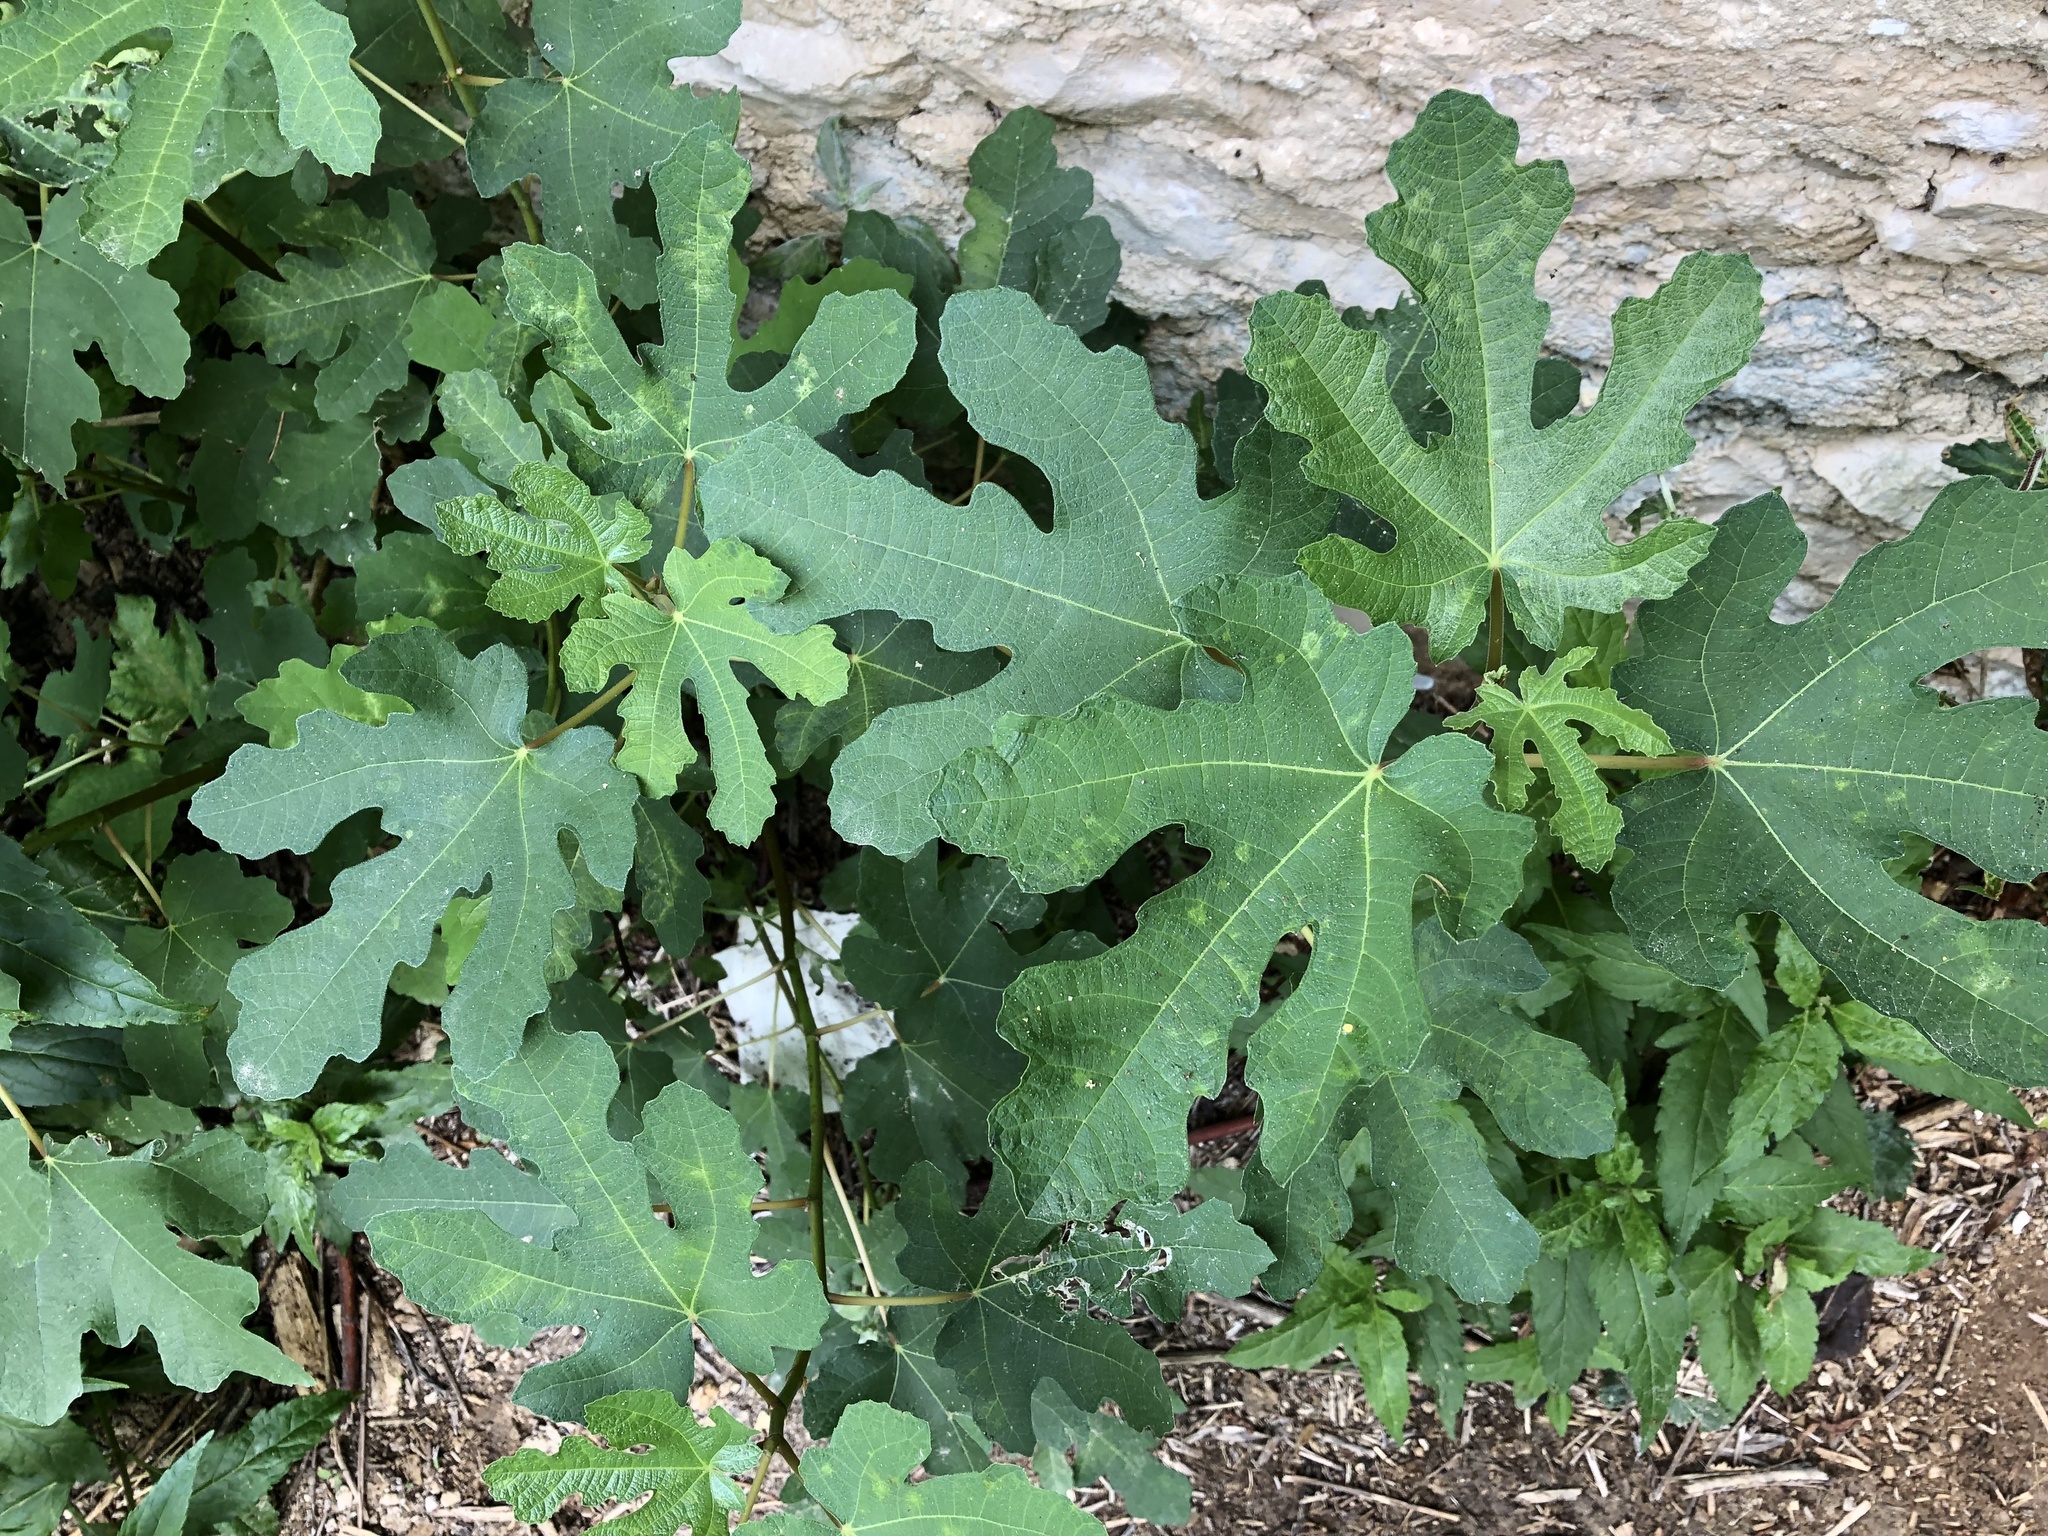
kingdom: Plantae
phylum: Tracheophyta
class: Magnoliopsida
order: Rosales
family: Moraceae
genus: Ficus
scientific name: Ficus carica
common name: Fig
